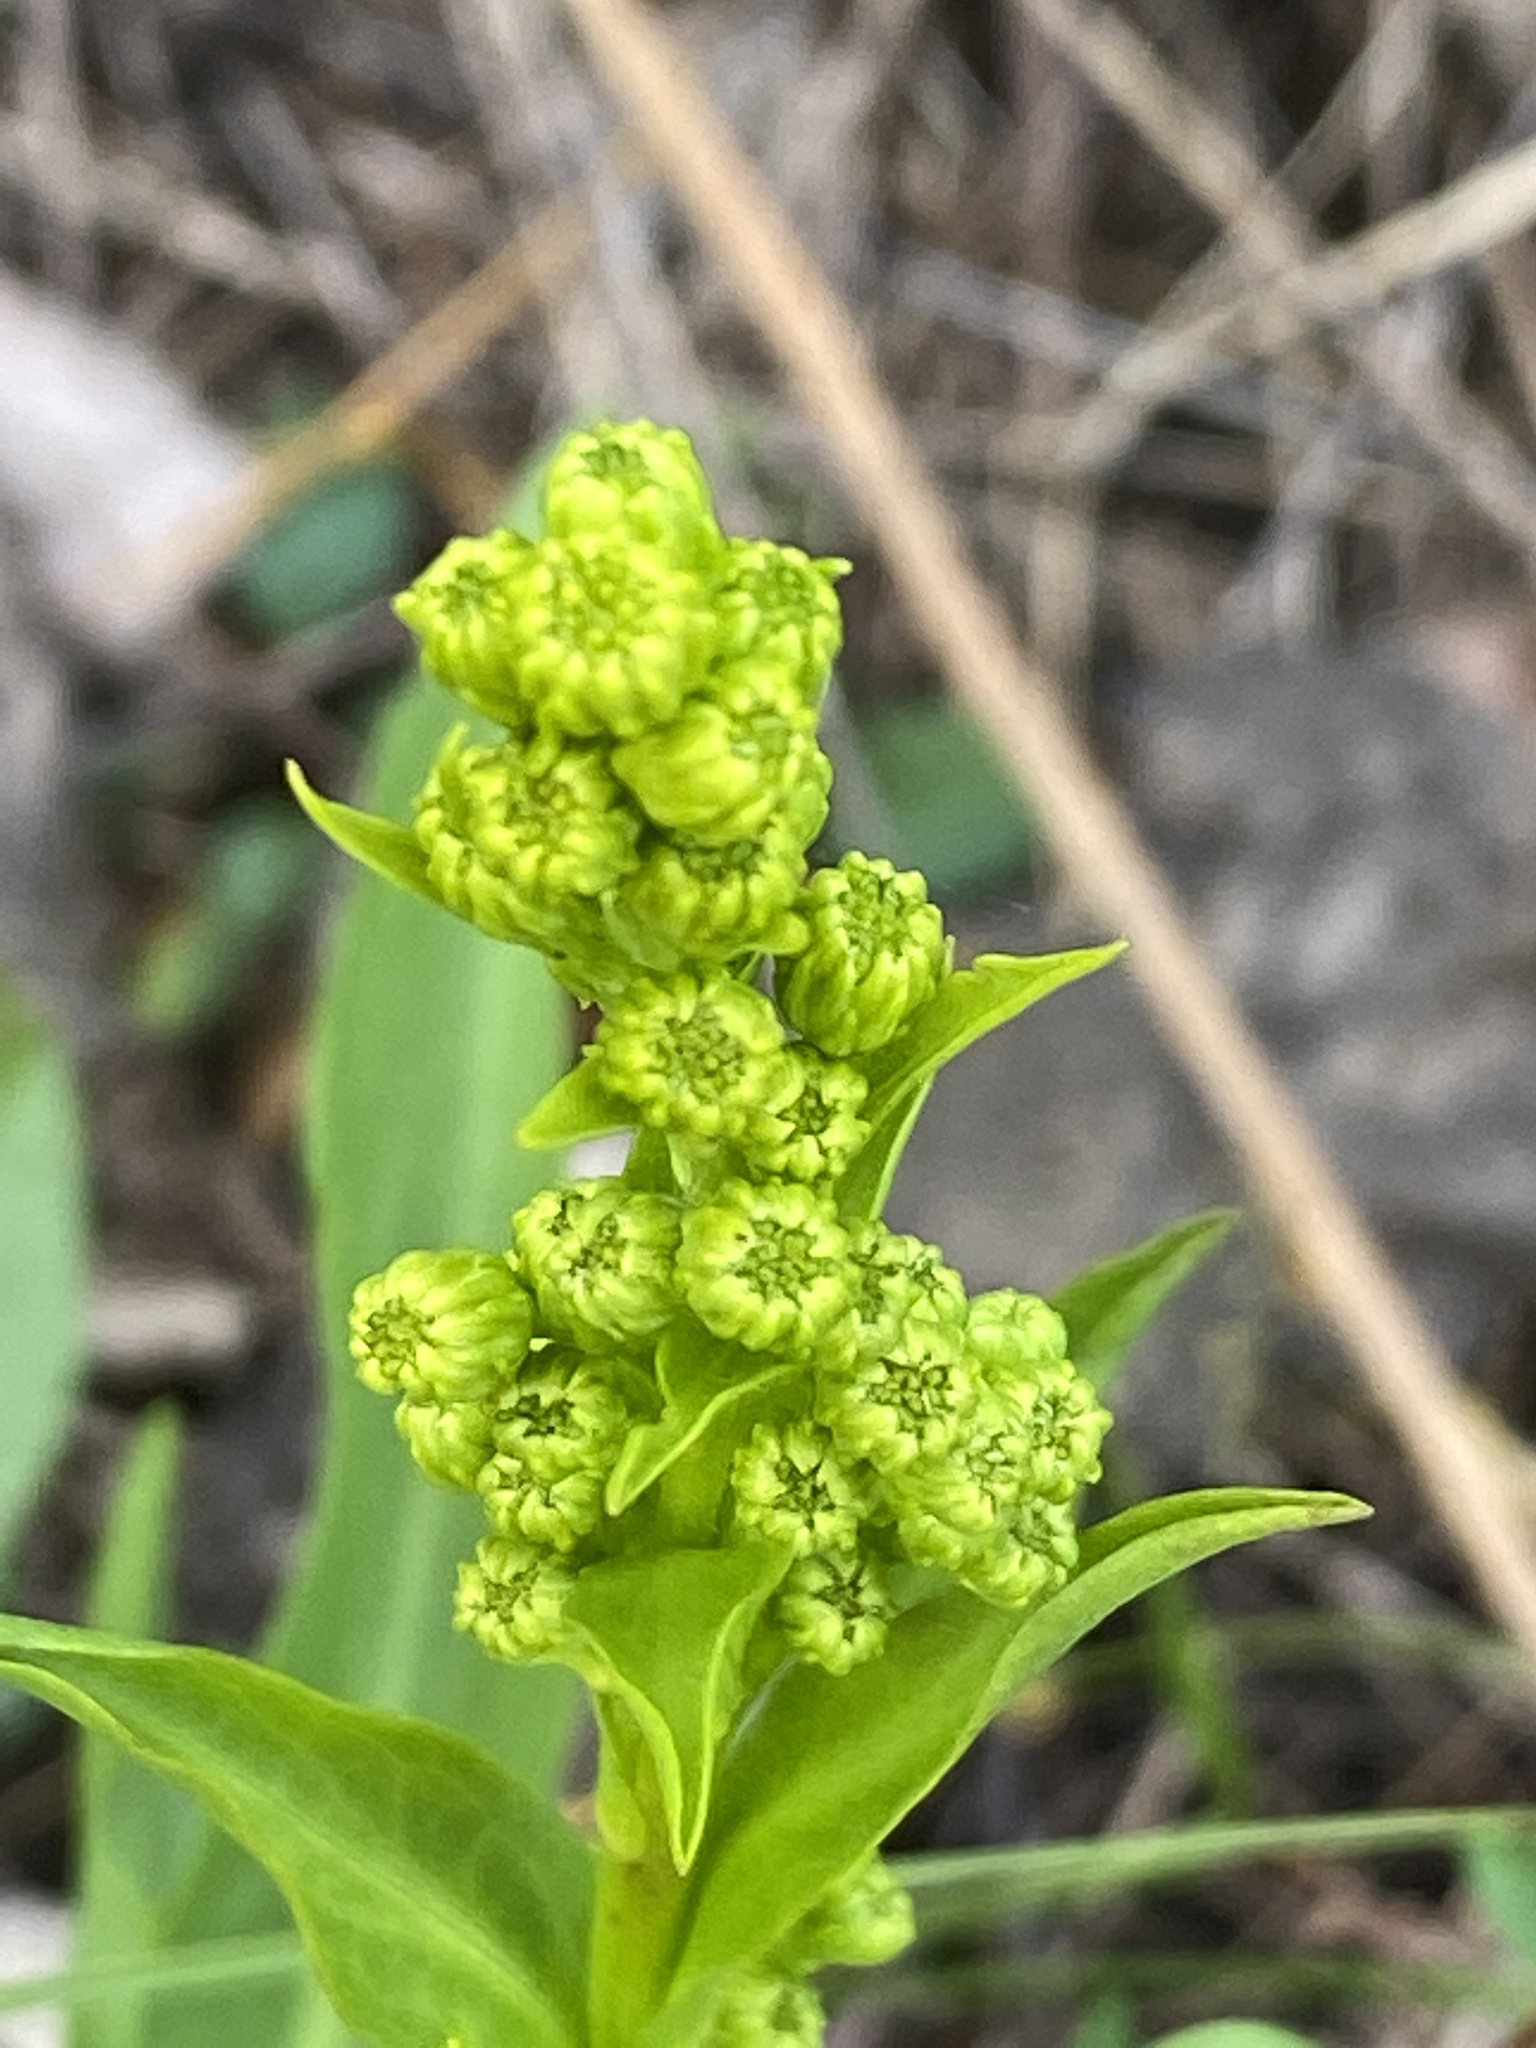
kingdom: Plantae
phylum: Tracheophyta
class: Magnoliopsida
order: Asterales
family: Asteraceae
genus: Solidago
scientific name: Solidago sempervirens
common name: Salt-marsh goldenrod
